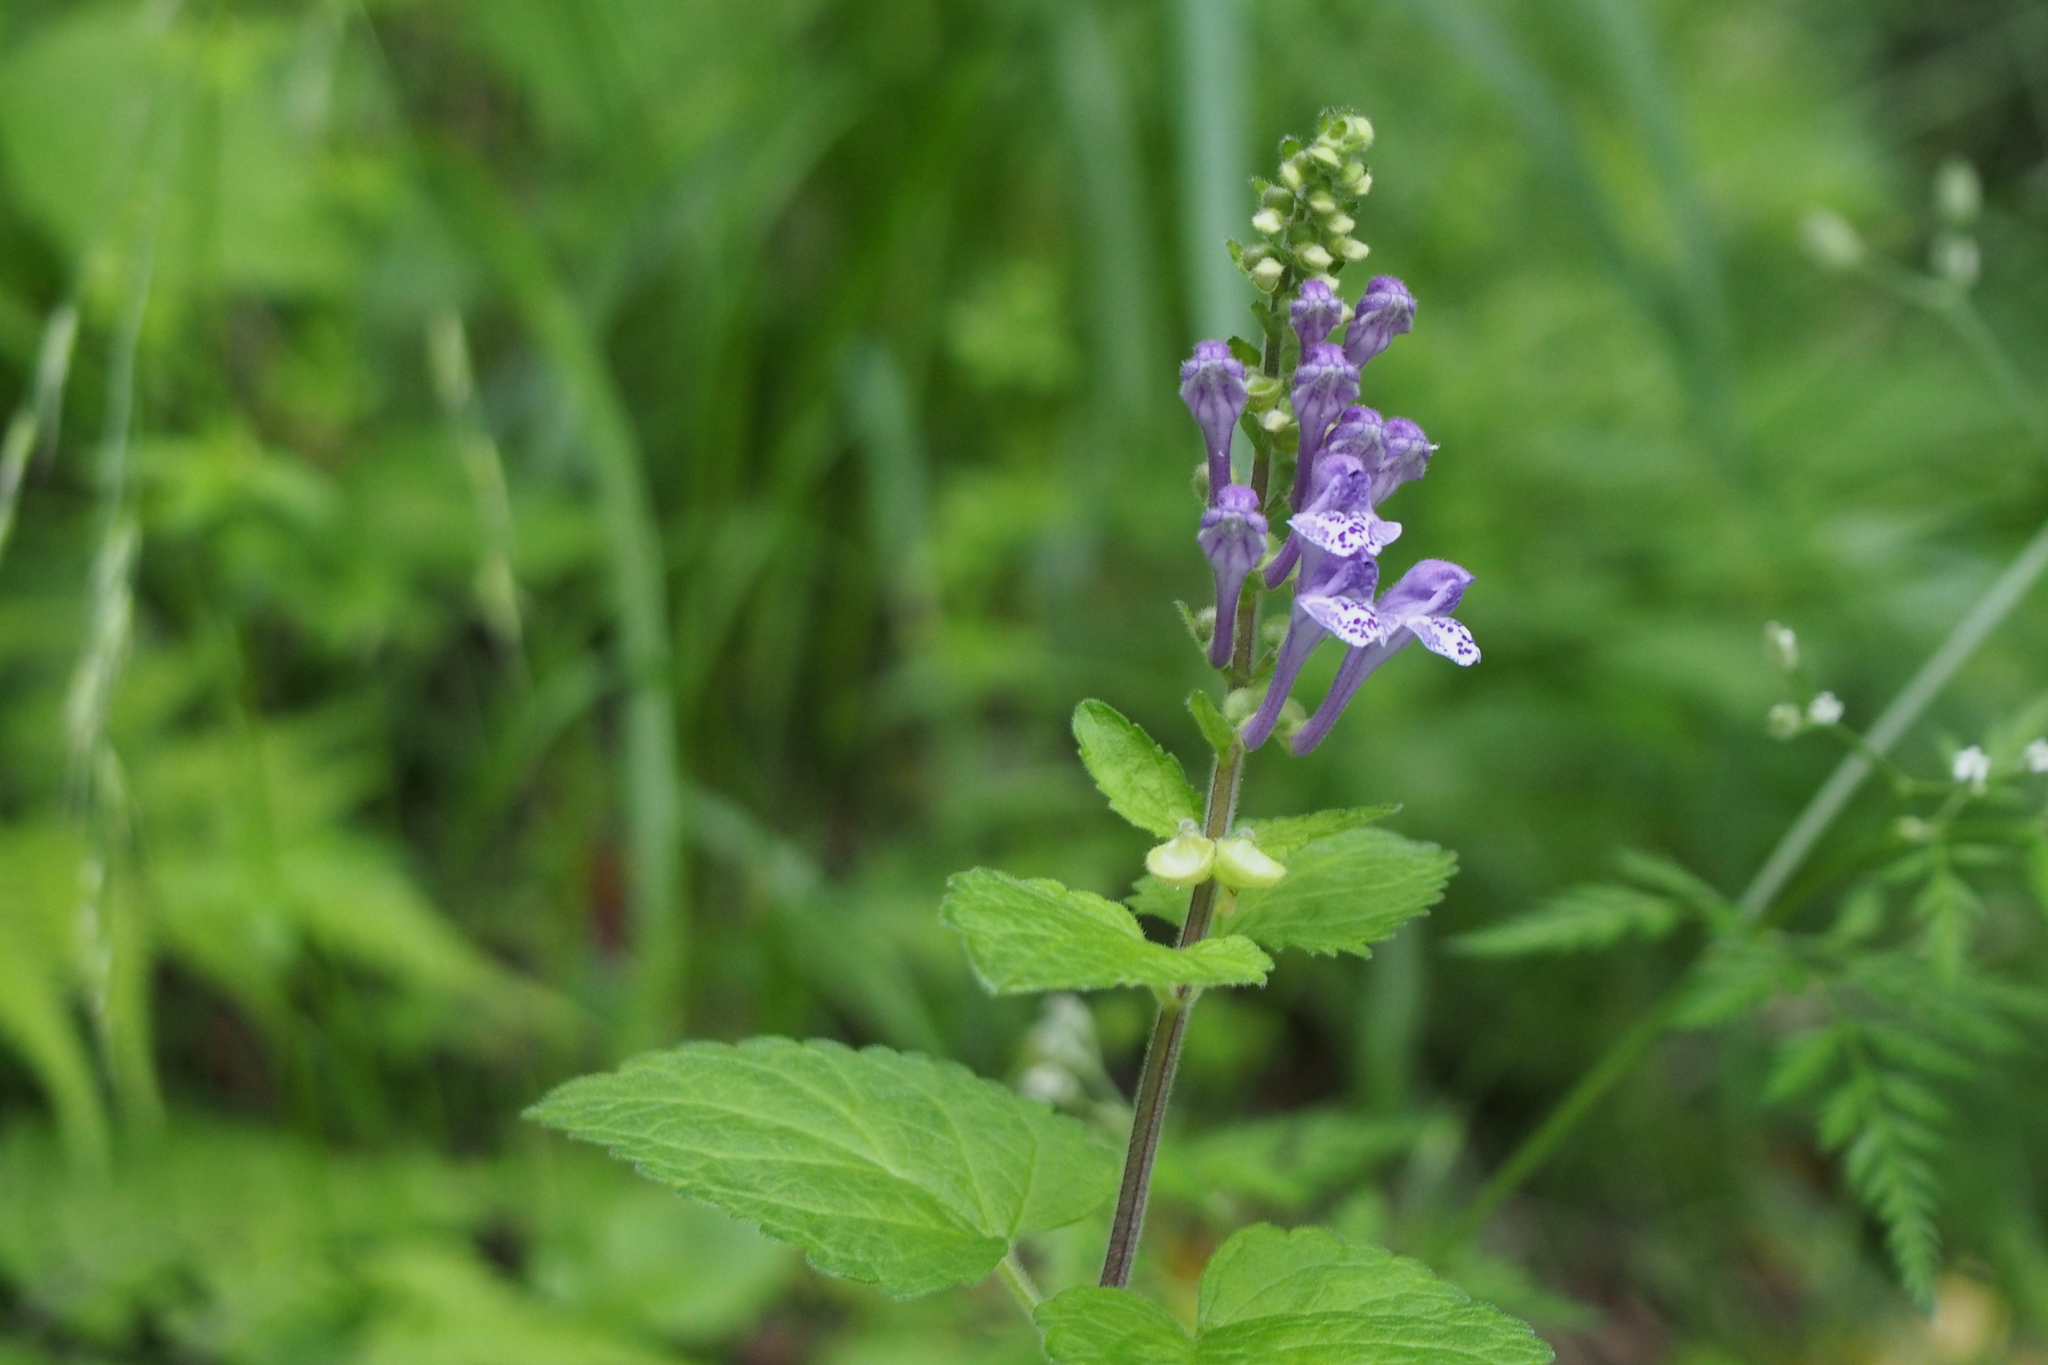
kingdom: Plantae
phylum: Tracheophyta
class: Magnoliopsida
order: Lamiales
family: Lamiaceae
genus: Scutellaria
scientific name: Scutellaria indica
